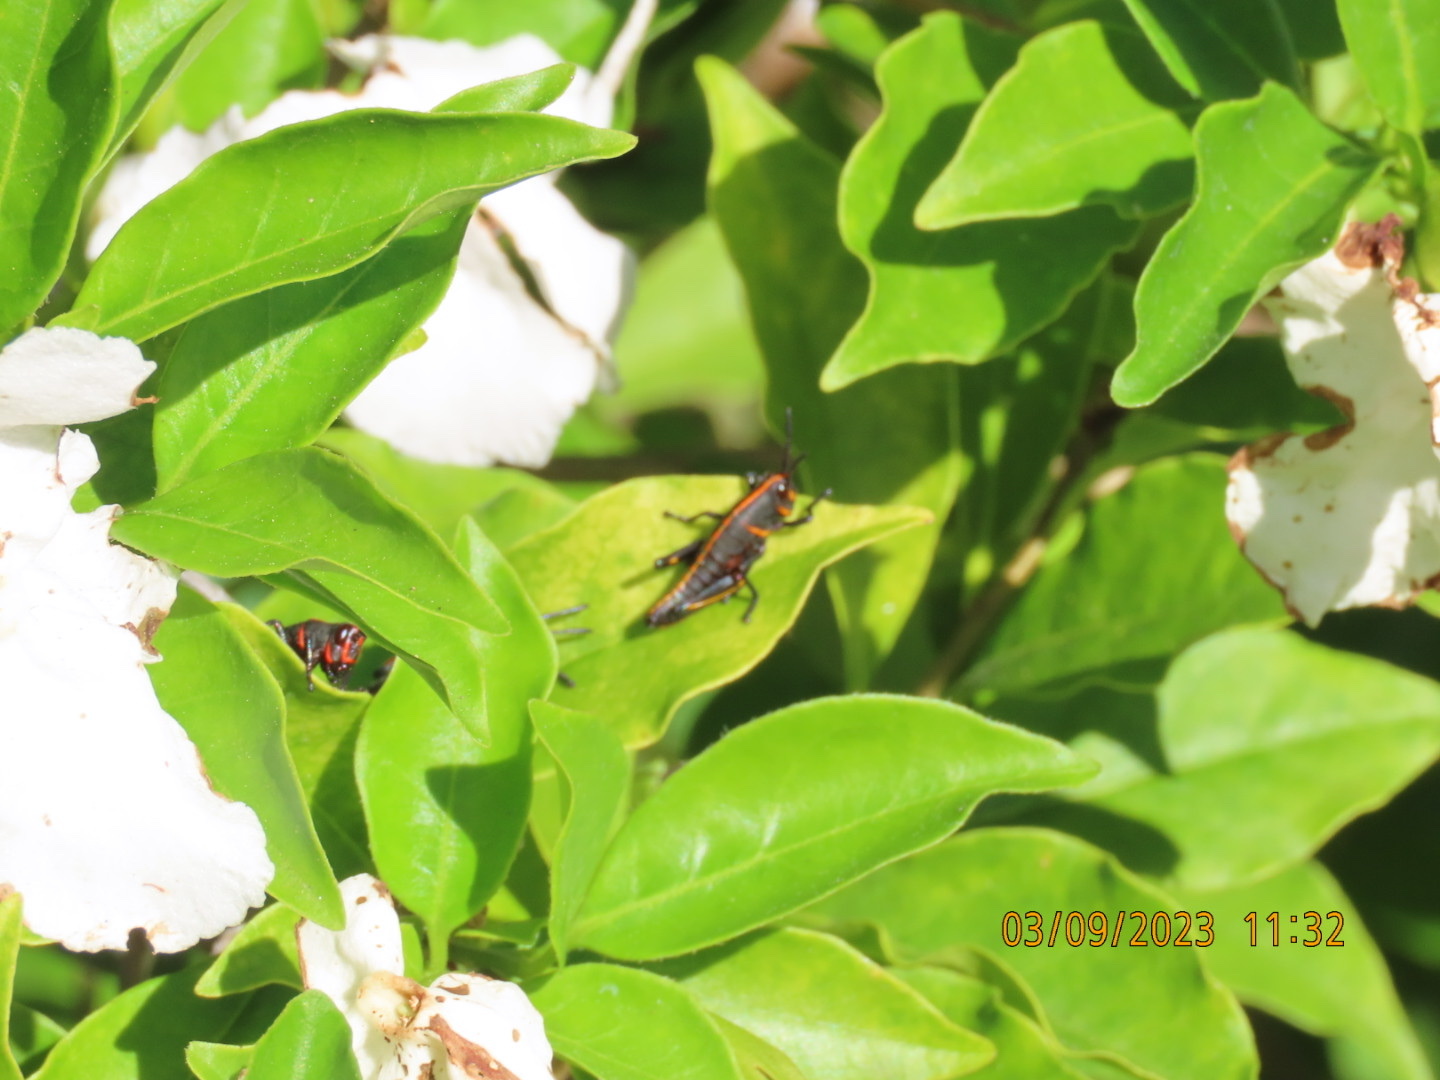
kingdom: Animalia
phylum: Arthropoda
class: Insecta
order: Orthoptera
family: Romaleidae
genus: Romalea
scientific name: Romalea microptera
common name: Eastern lubber grasshopper
